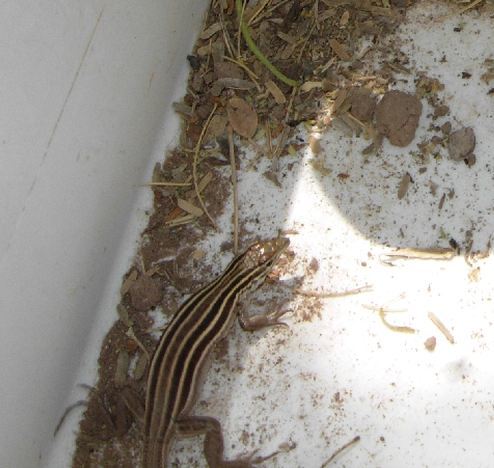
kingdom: Animalia
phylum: Chordata
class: Squamata
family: Teiidae
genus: Aspidoscelis
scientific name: Aspidoscelis uniparens
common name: Desert grassland whiptail
